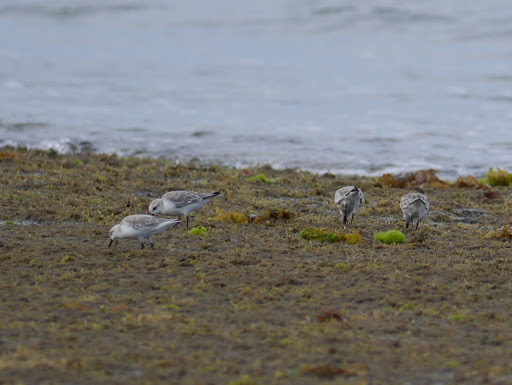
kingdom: Animalia
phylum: Chordata
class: Aves
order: Charadriiformes
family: Scolopacidae
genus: Calidris
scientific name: Calidris alba
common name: Sanderling
